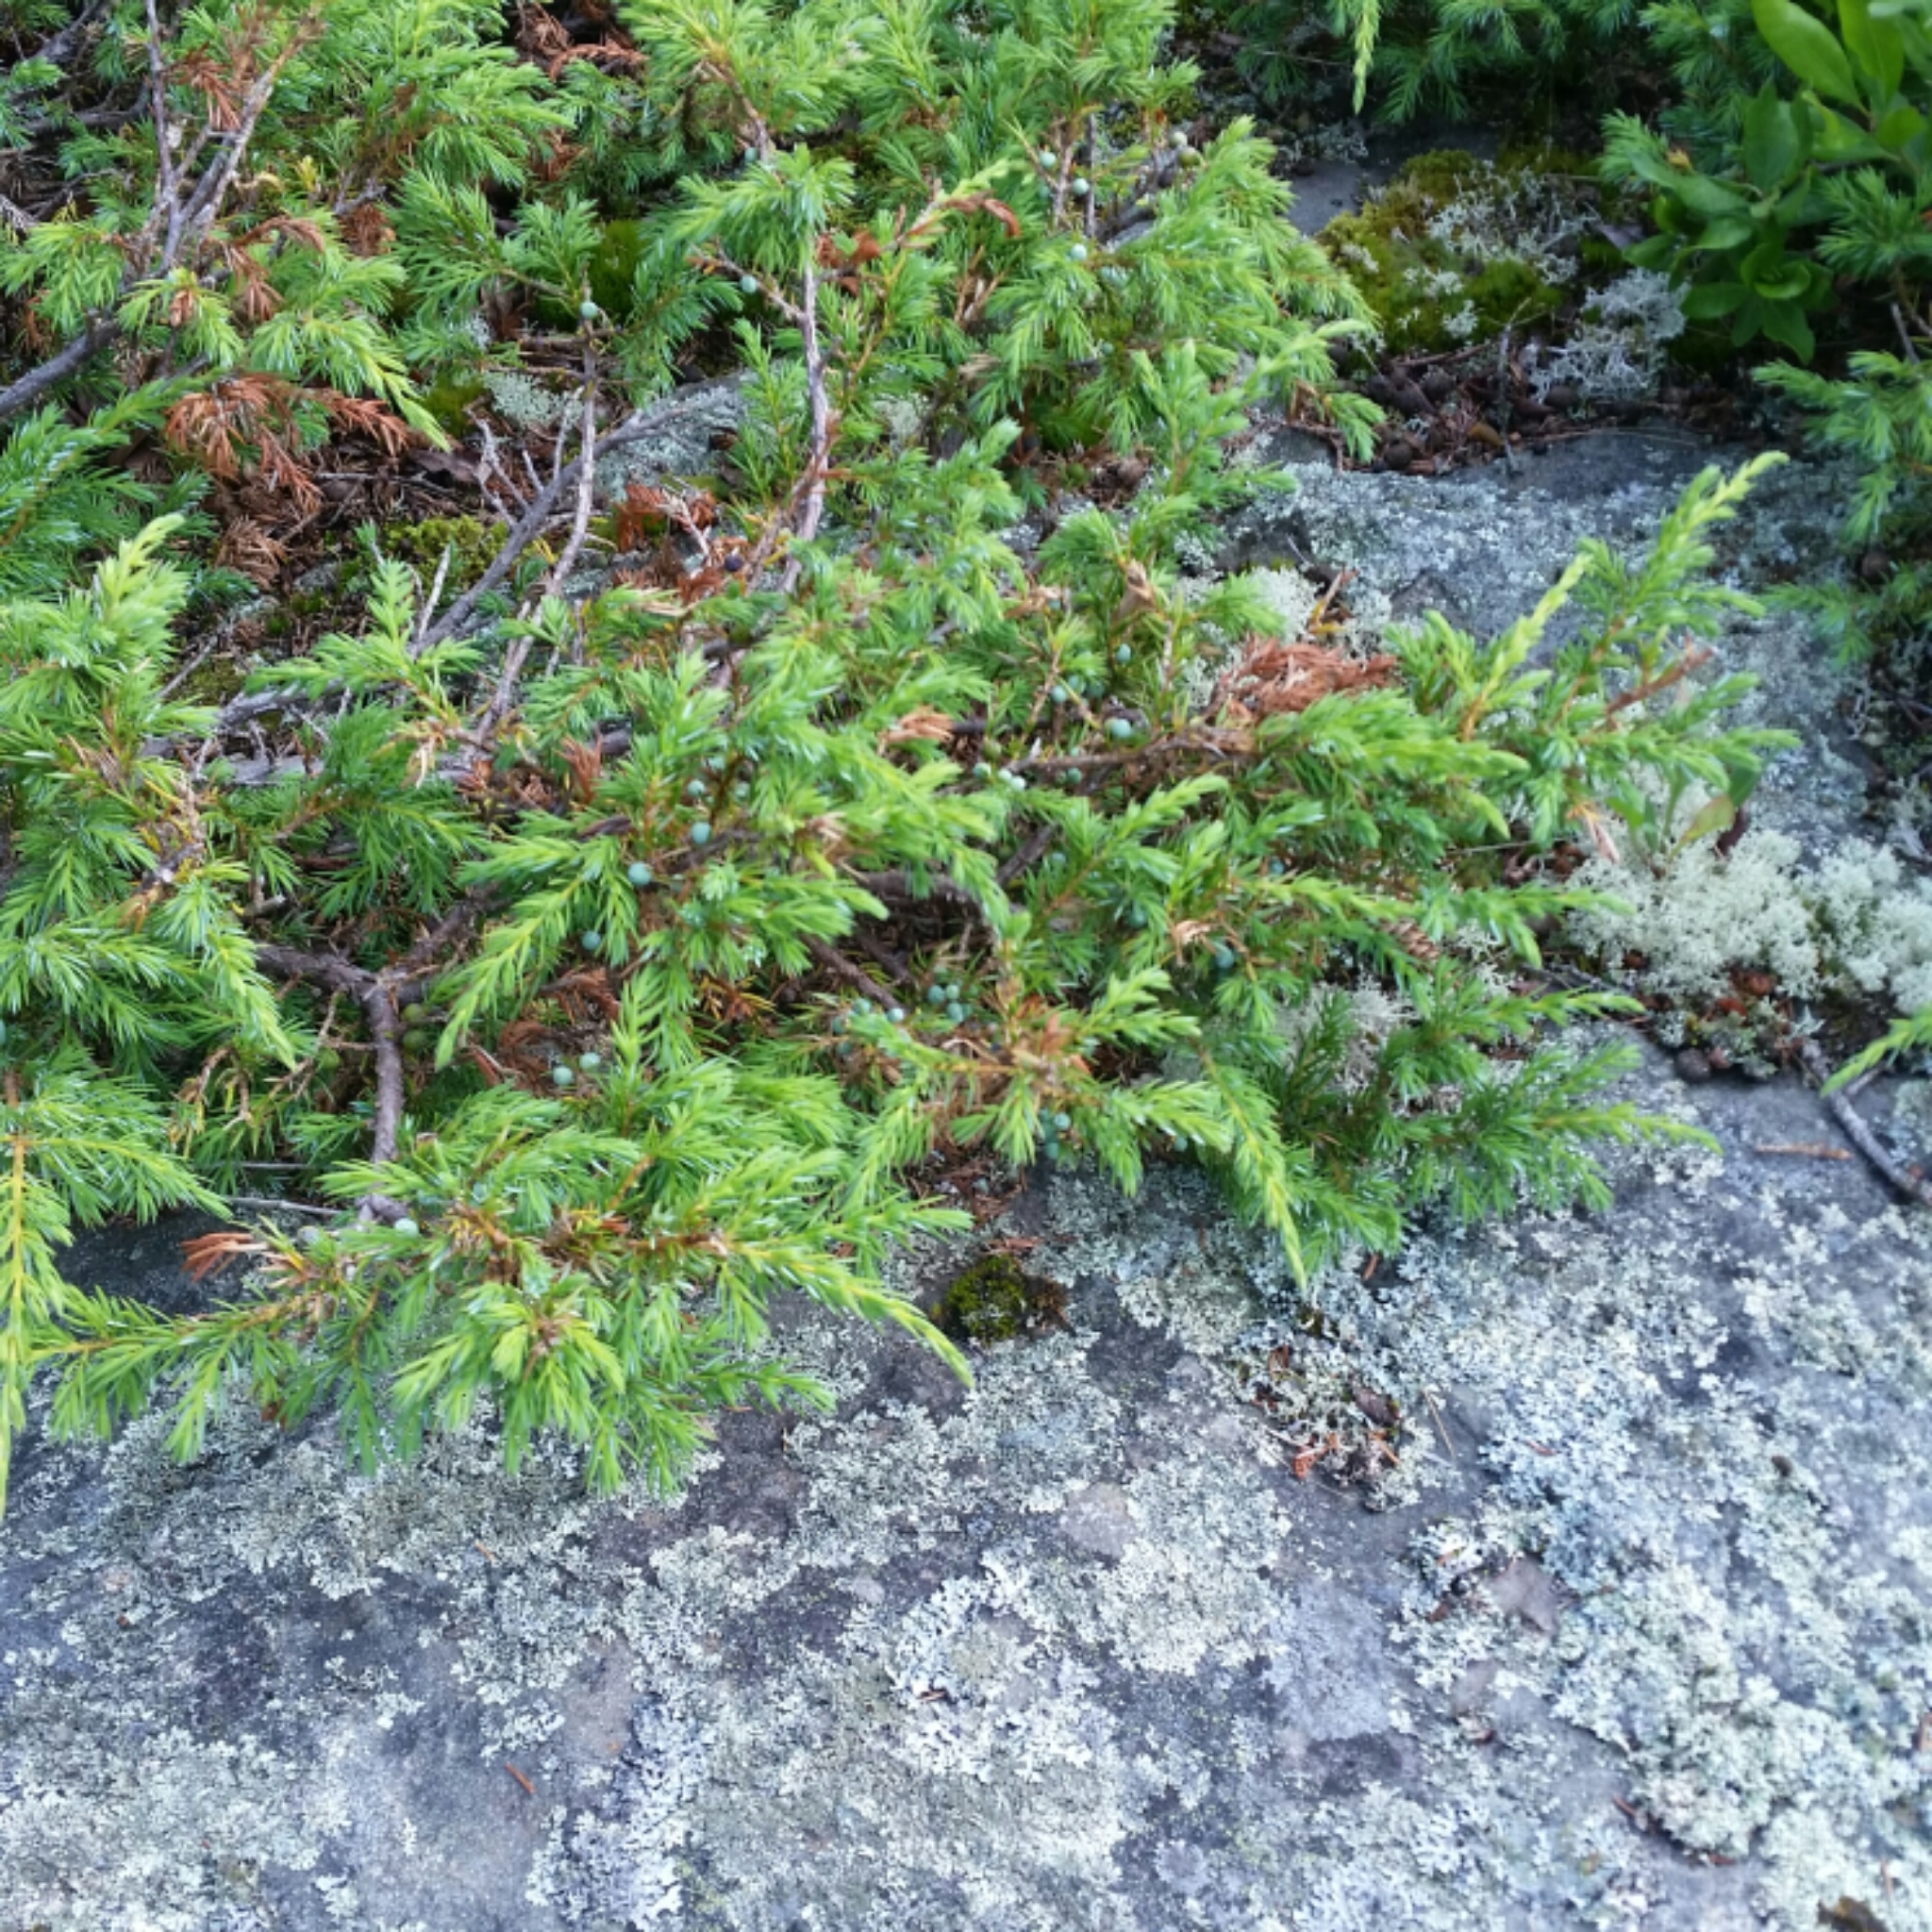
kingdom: Plantae
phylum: Tracheophyta
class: Pinopsida
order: Pinales
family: Cupressaceae
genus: Juniperus
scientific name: Juniperus communis
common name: Common juniper
